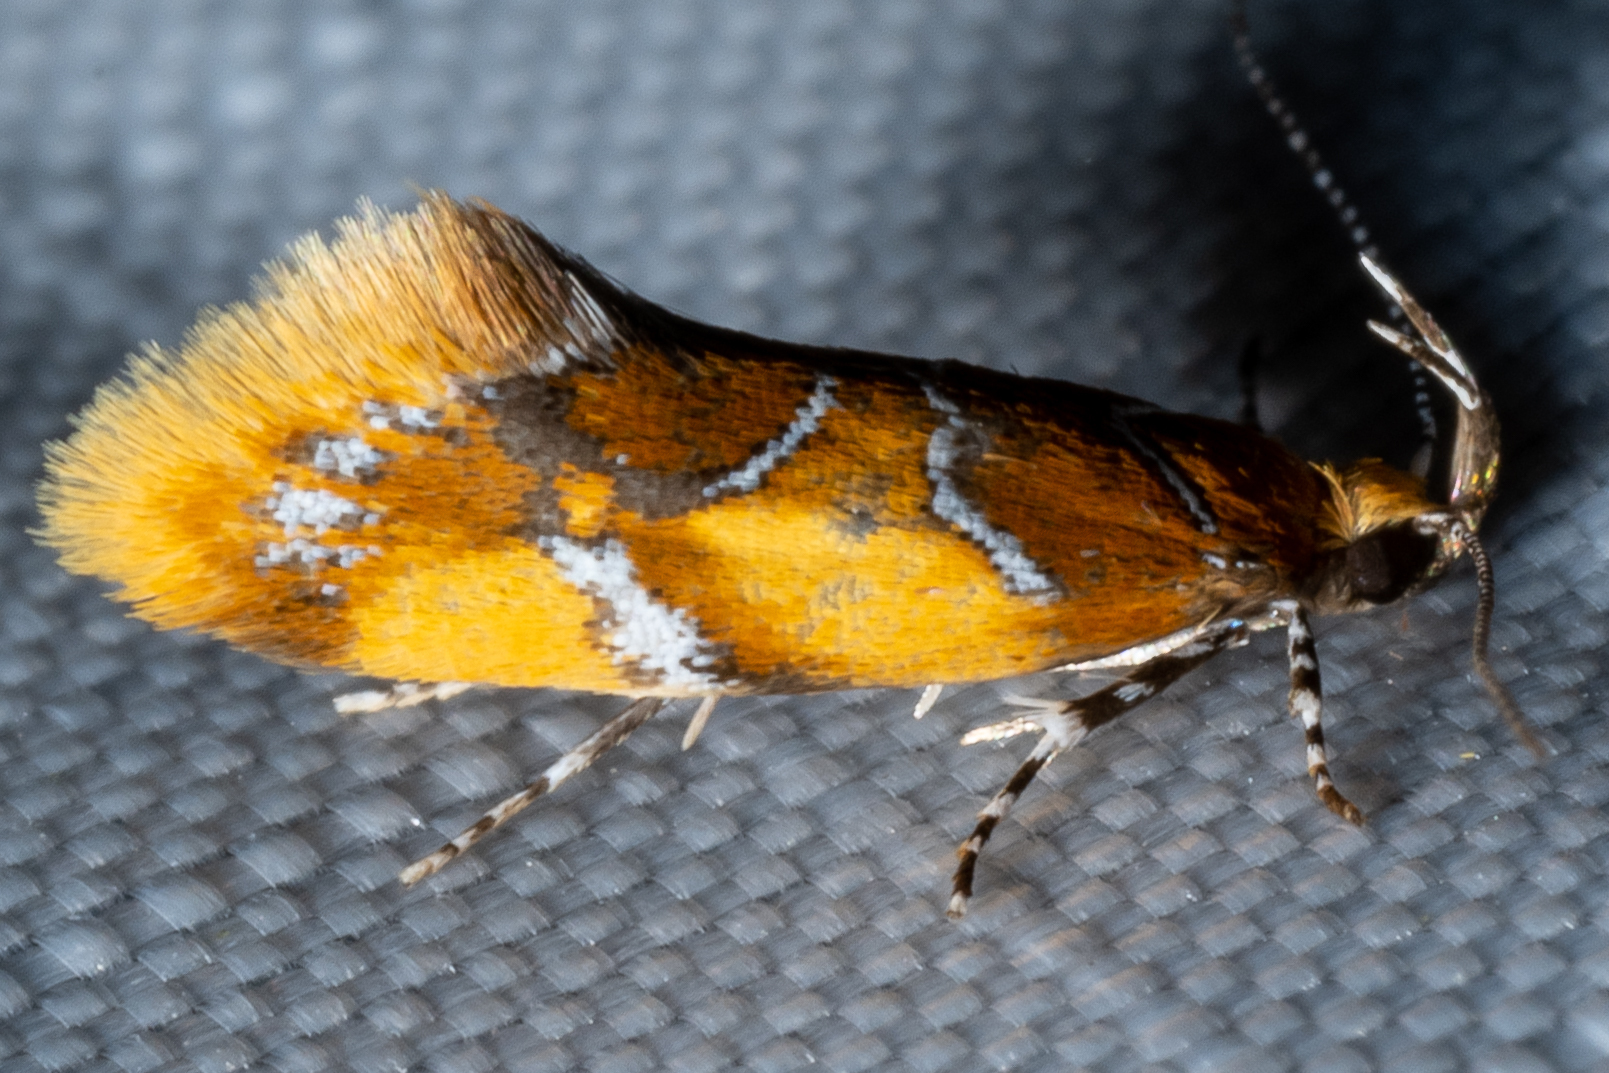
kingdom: Animalia
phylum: Arthropoda
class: Insecta
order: Lepidoptera
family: Oecophoridae
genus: Callima
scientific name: Callima argenticinctella
